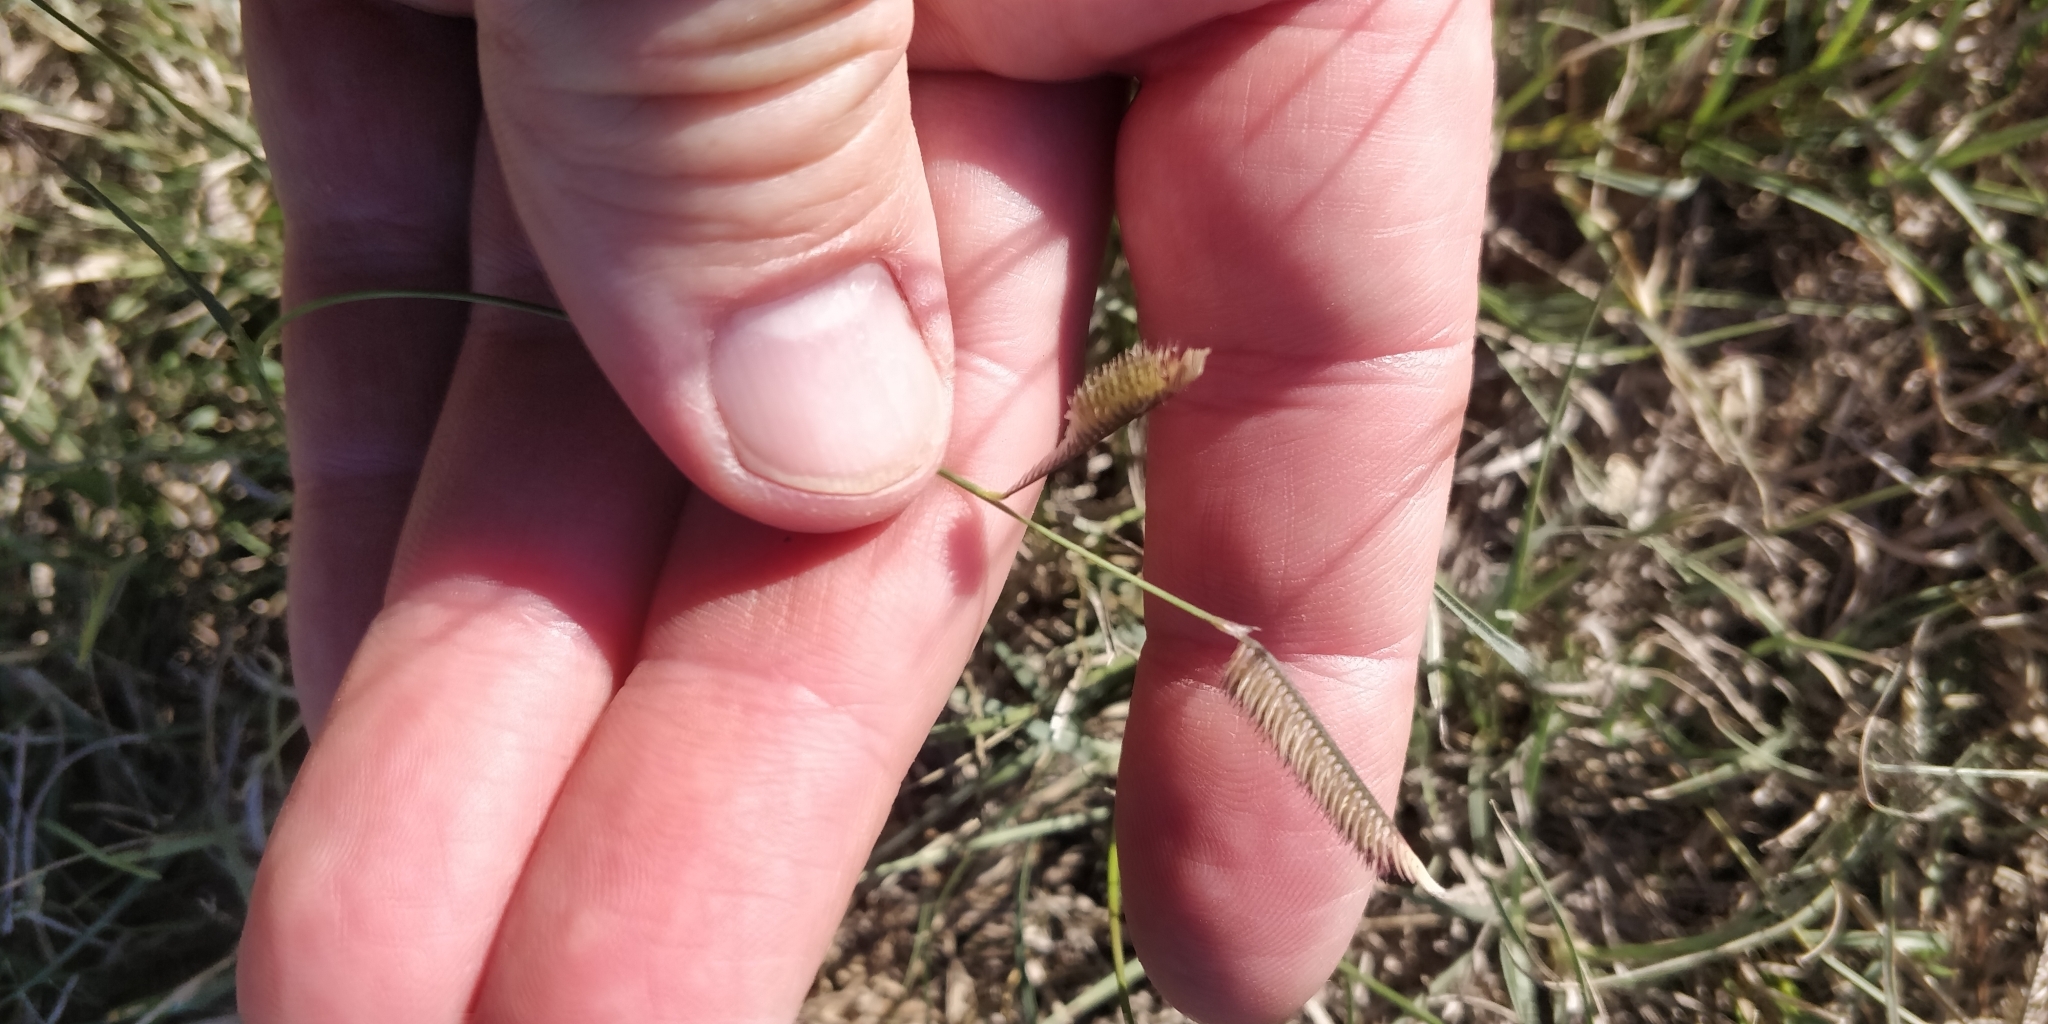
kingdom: Plantae
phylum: Tracheophyta
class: Liliopsida
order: Poales
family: Poaceae
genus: Bouteloua
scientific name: Bouteloua gracilis
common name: Blue grama
